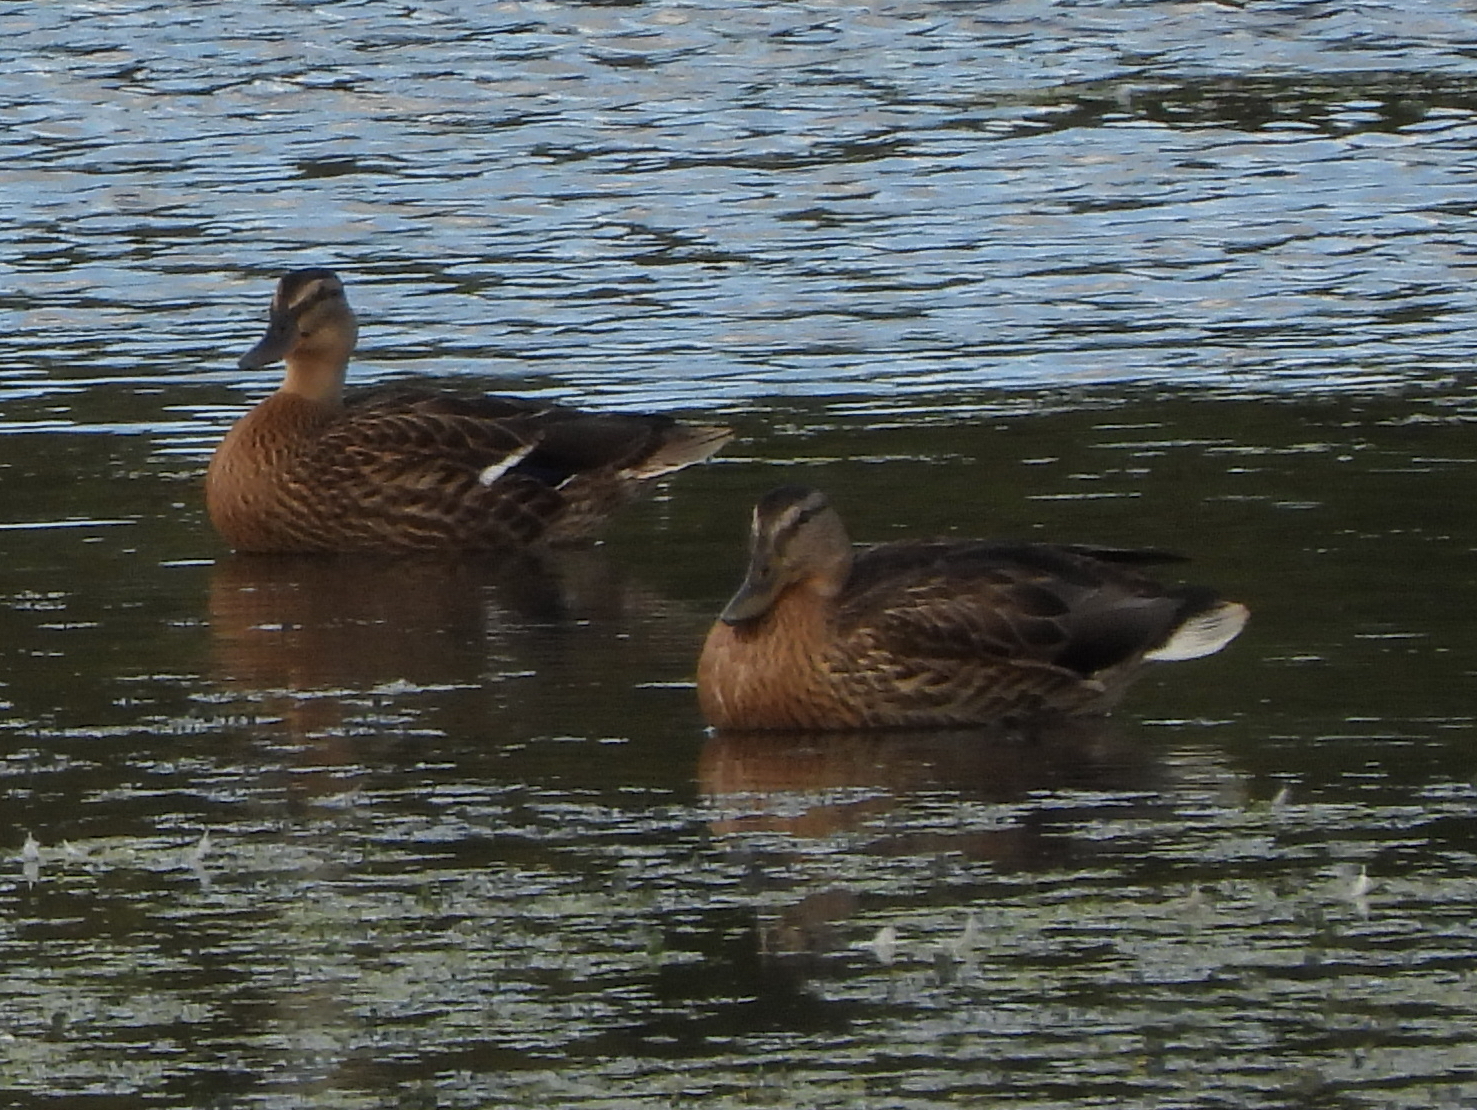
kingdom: Animalia
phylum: Chordata
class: Aves
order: Anseriformes
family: Anatidae
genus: Anas
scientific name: Anas platyrhynchos
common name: Mallard
